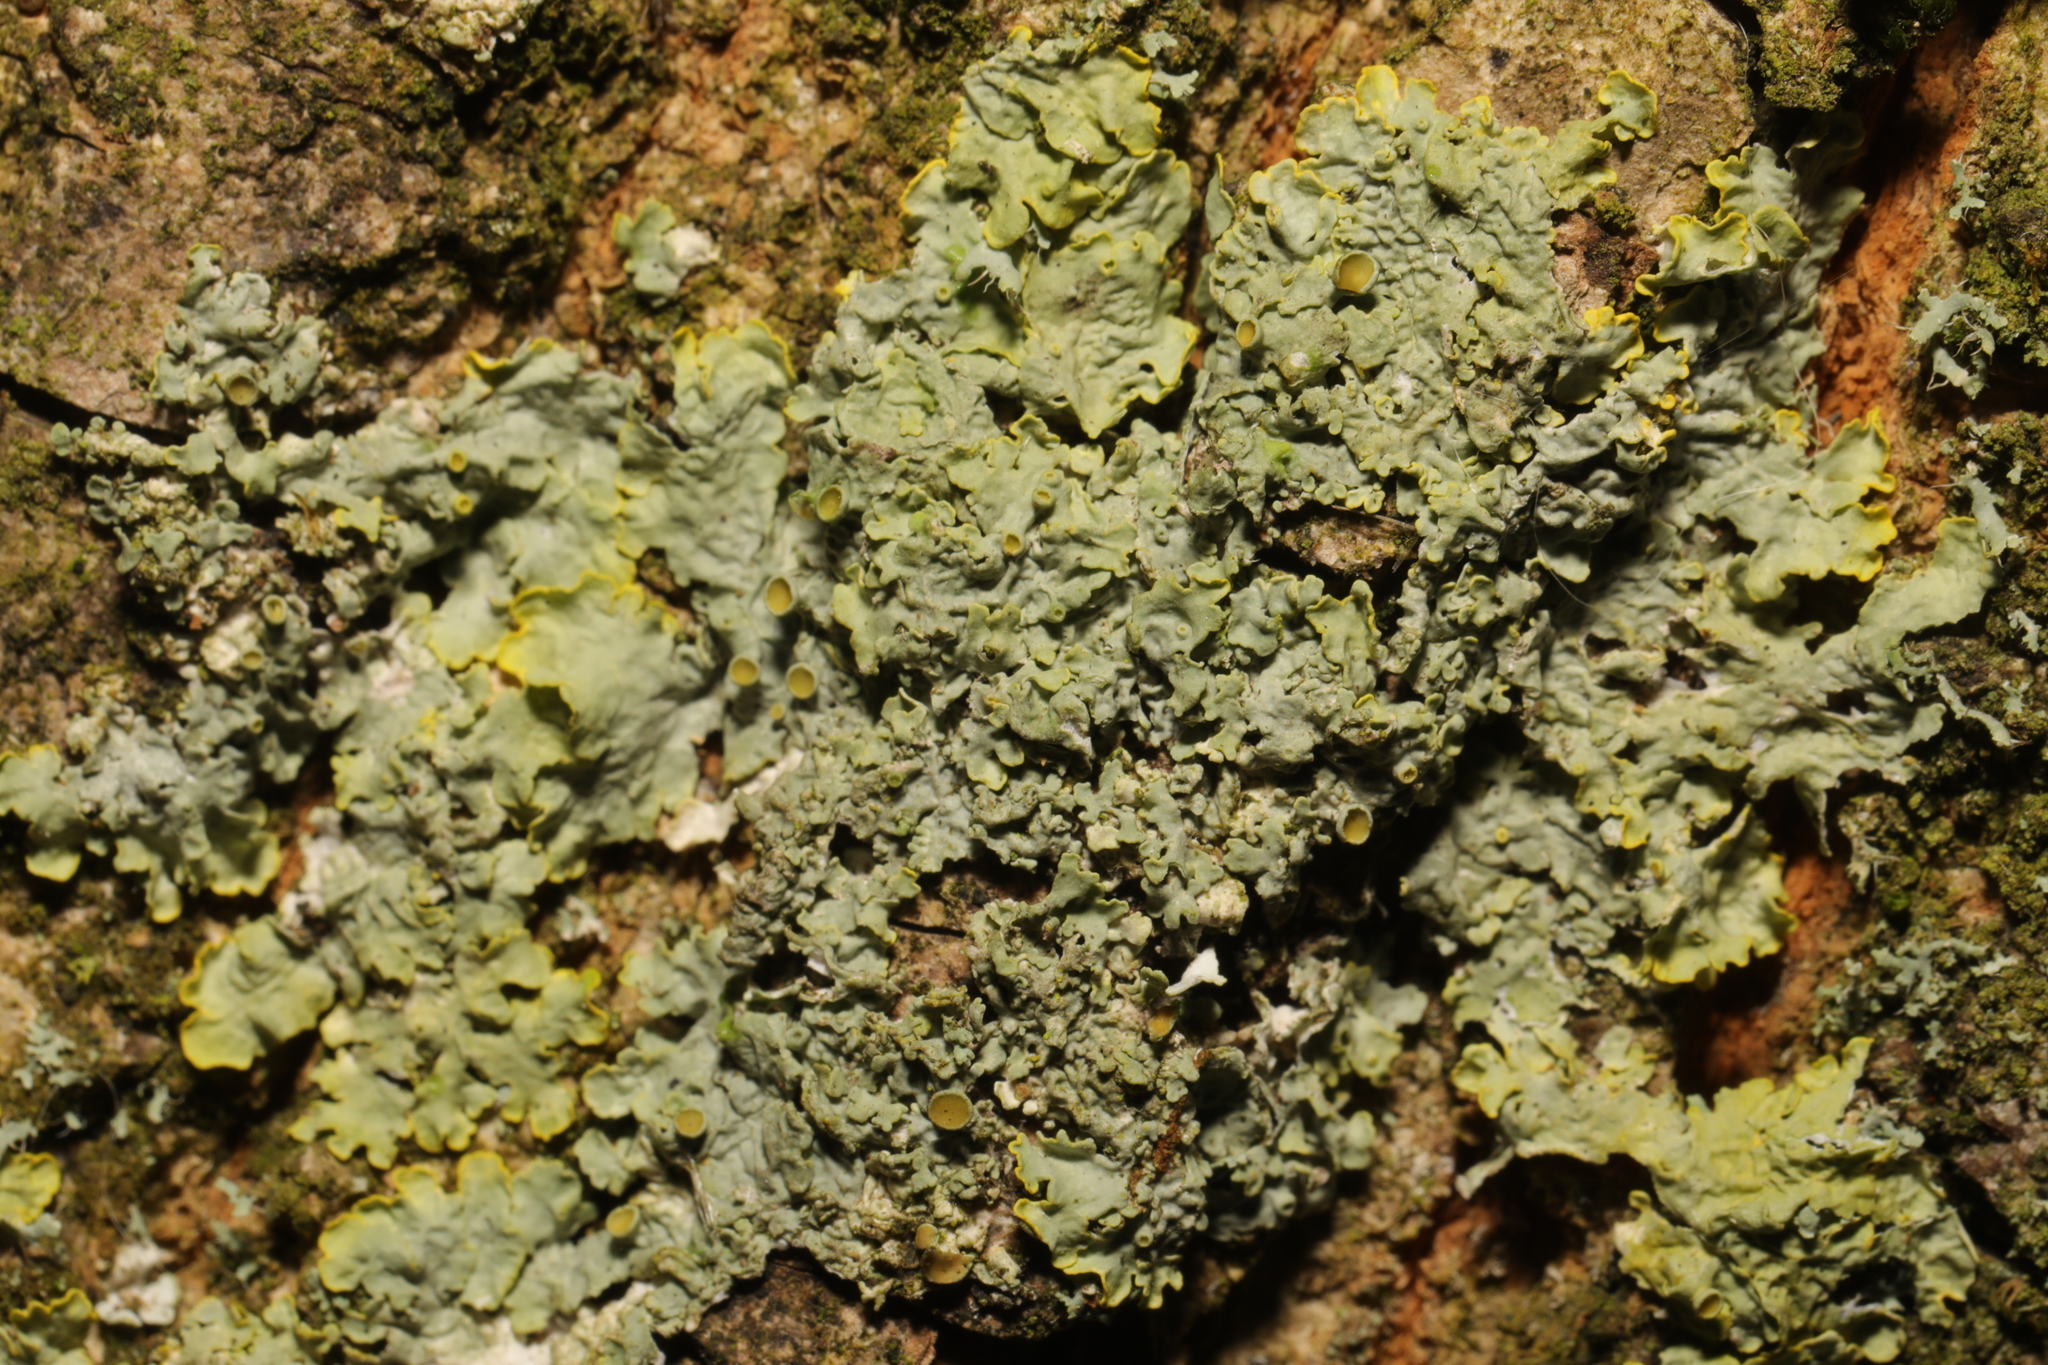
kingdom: Fungi
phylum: Ascomycota
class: Lecanoromycetes
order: Teloschistales
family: Teloschistaceae
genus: Xanthoria
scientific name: Xanthoria parietina
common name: Common orange lichen
